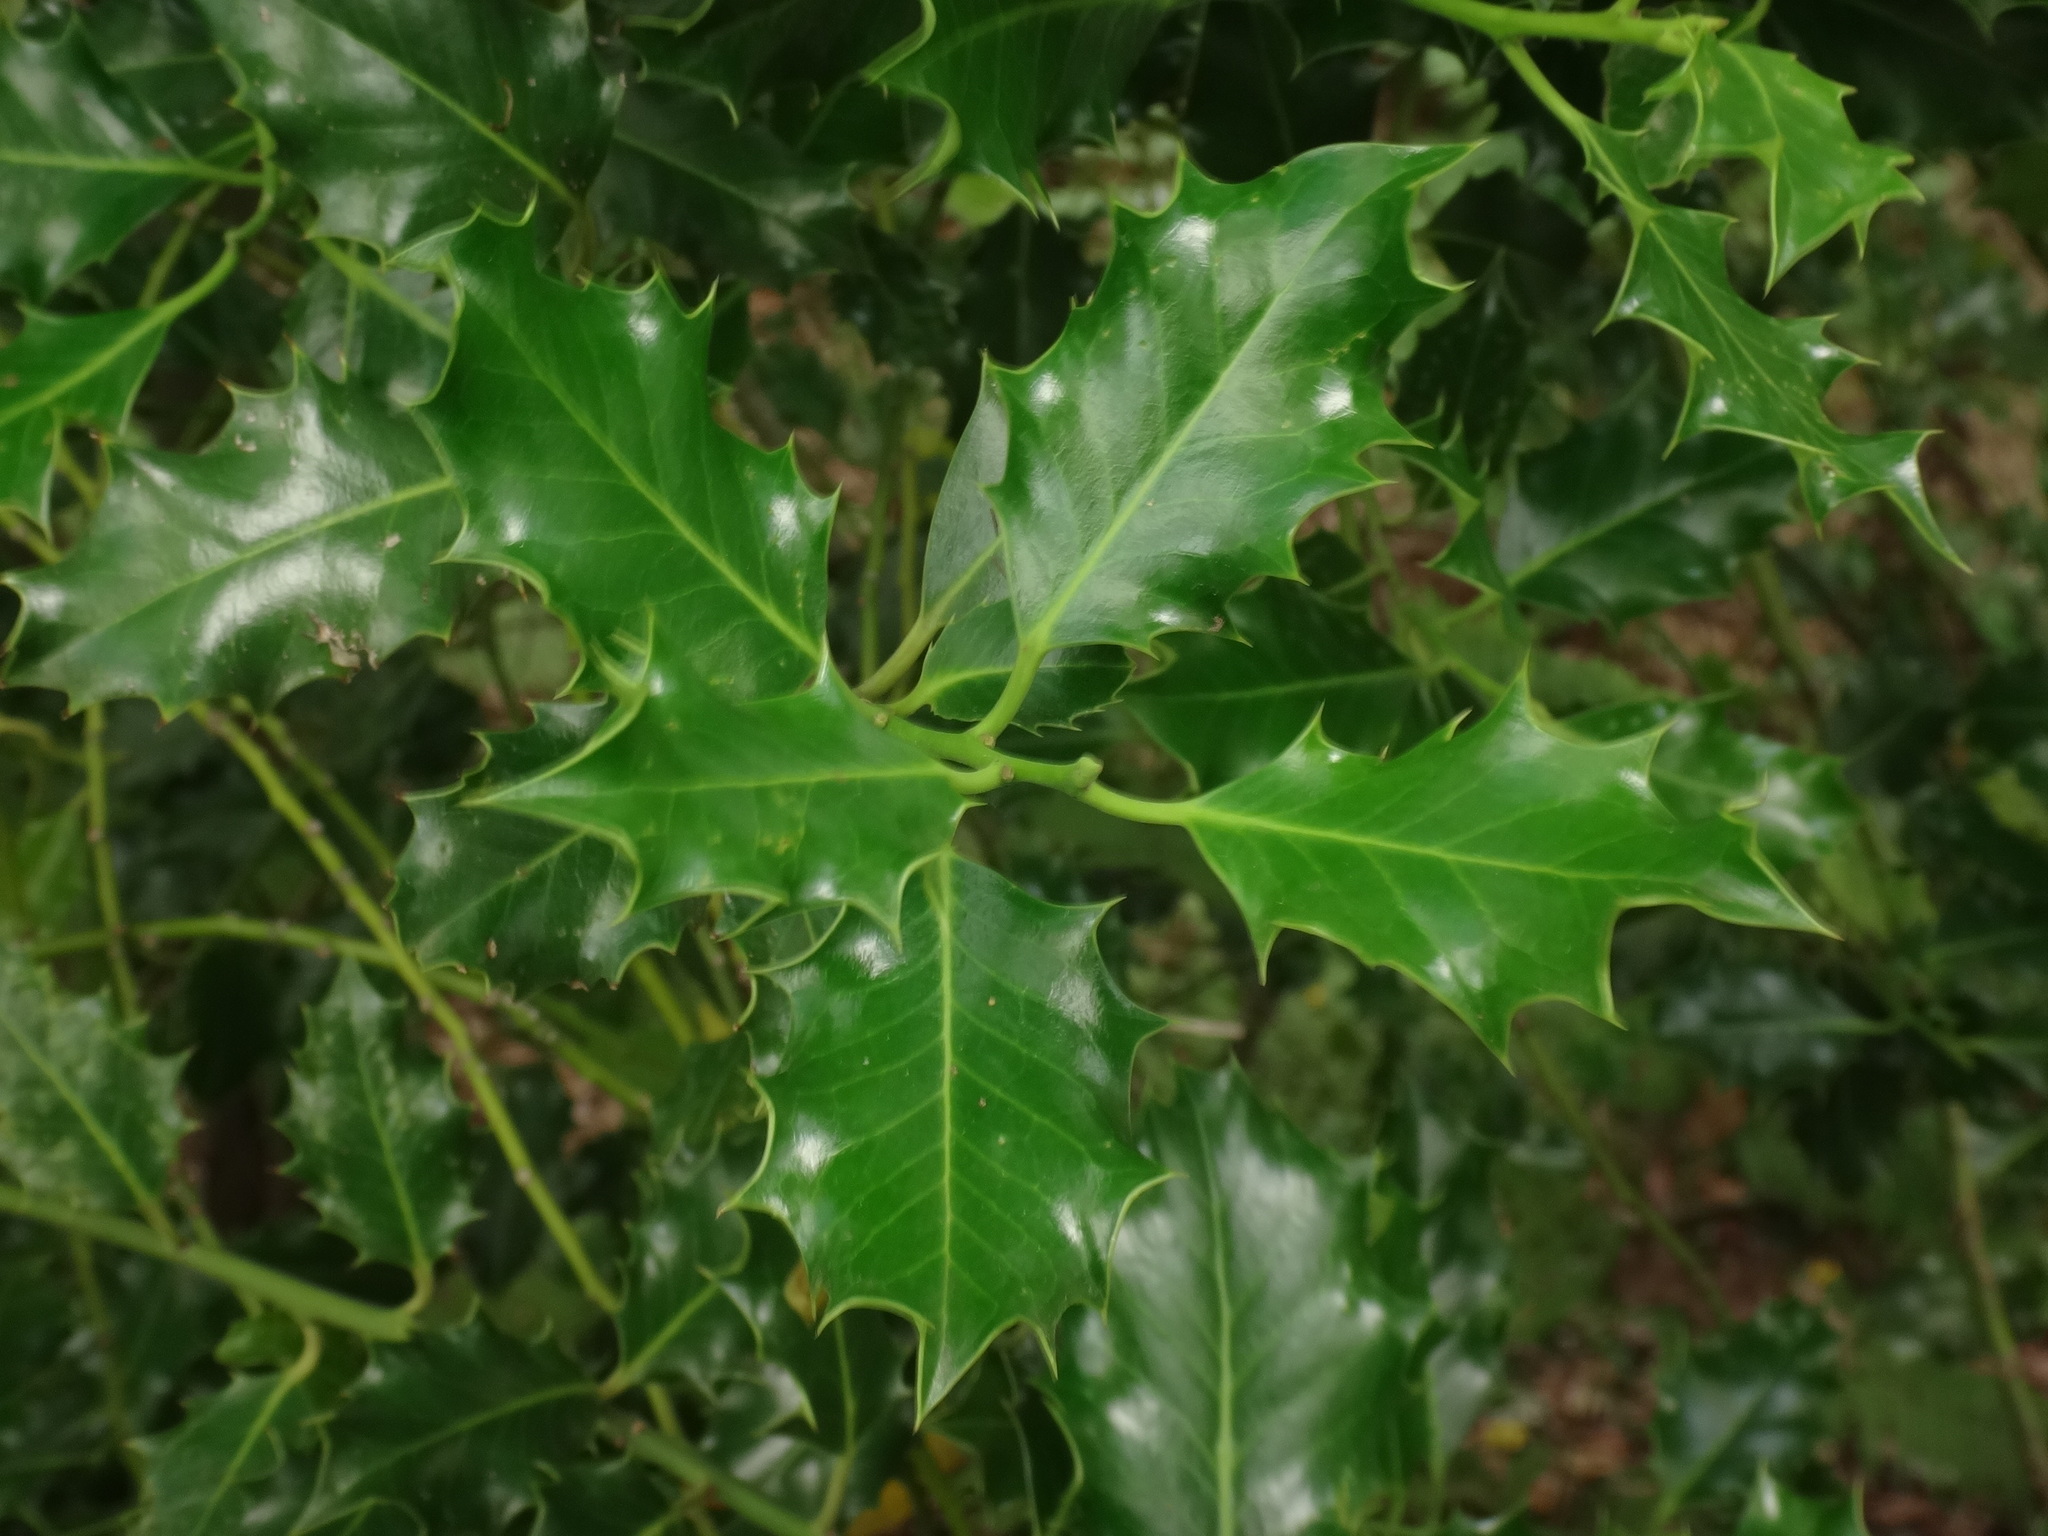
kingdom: Plantae
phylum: Tracheophyta
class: Magnoliopsida
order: Aquifoliales
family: Aquifoliaceae
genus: Ilex
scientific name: Ilex aquifolium
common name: English holly
